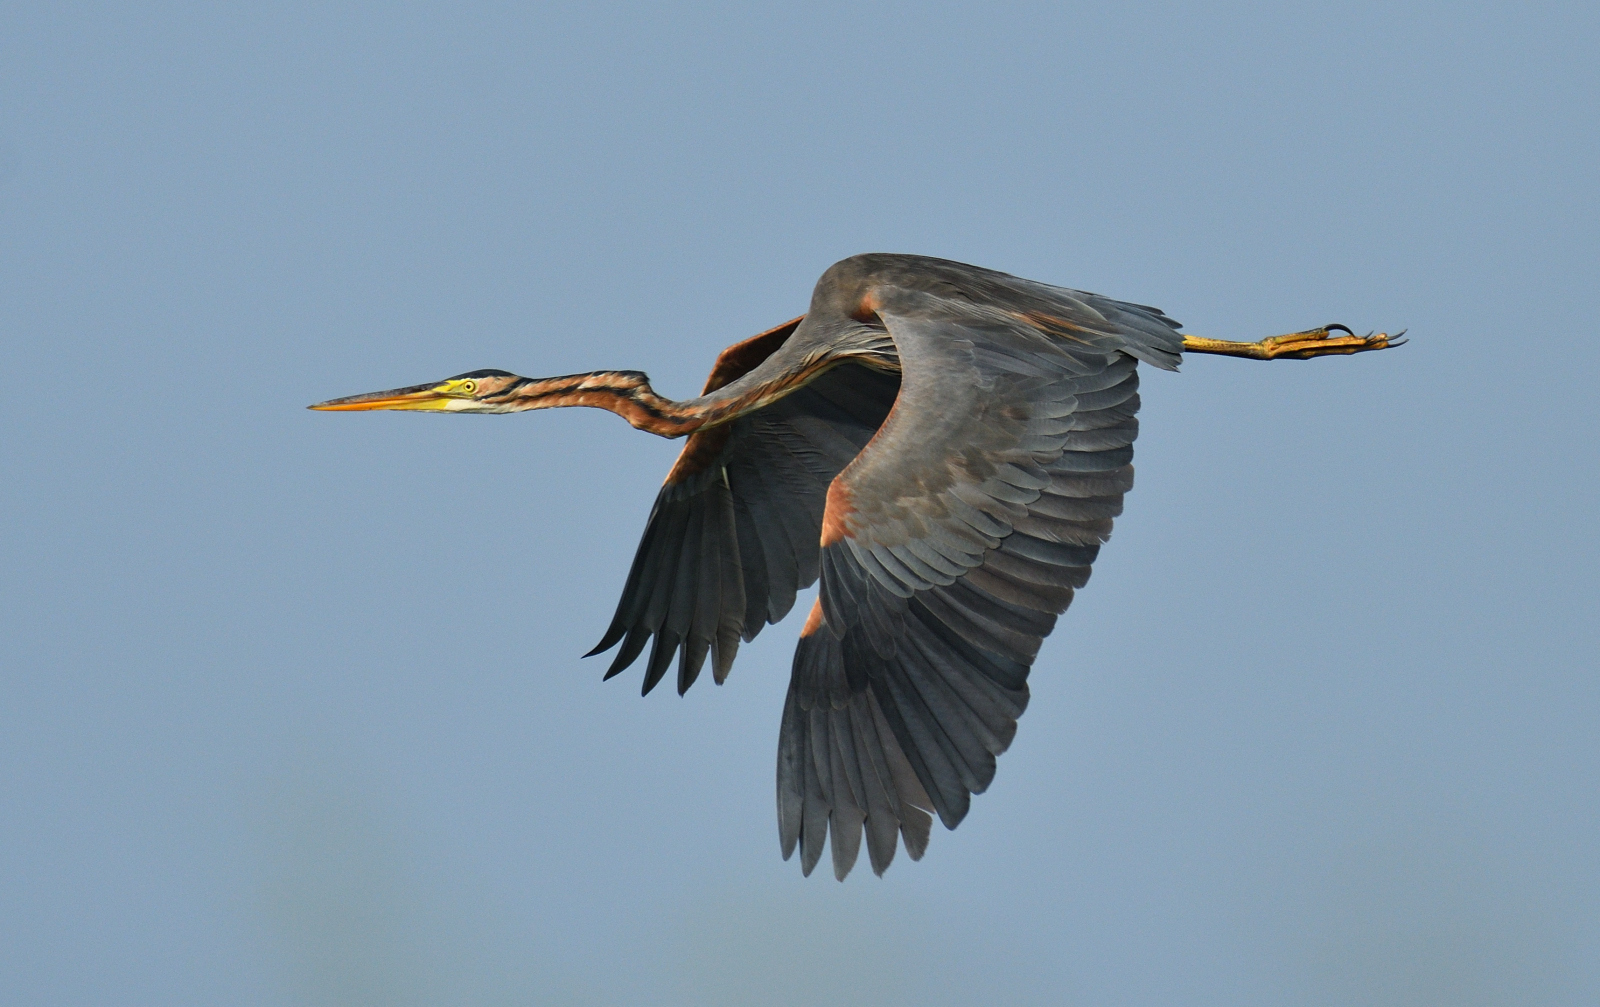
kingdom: Animalia
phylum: Chordata
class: Aves
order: Pelecaniformes
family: Ardeidae
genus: Ardea
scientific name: Ardea purpurea
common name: Purple heron
